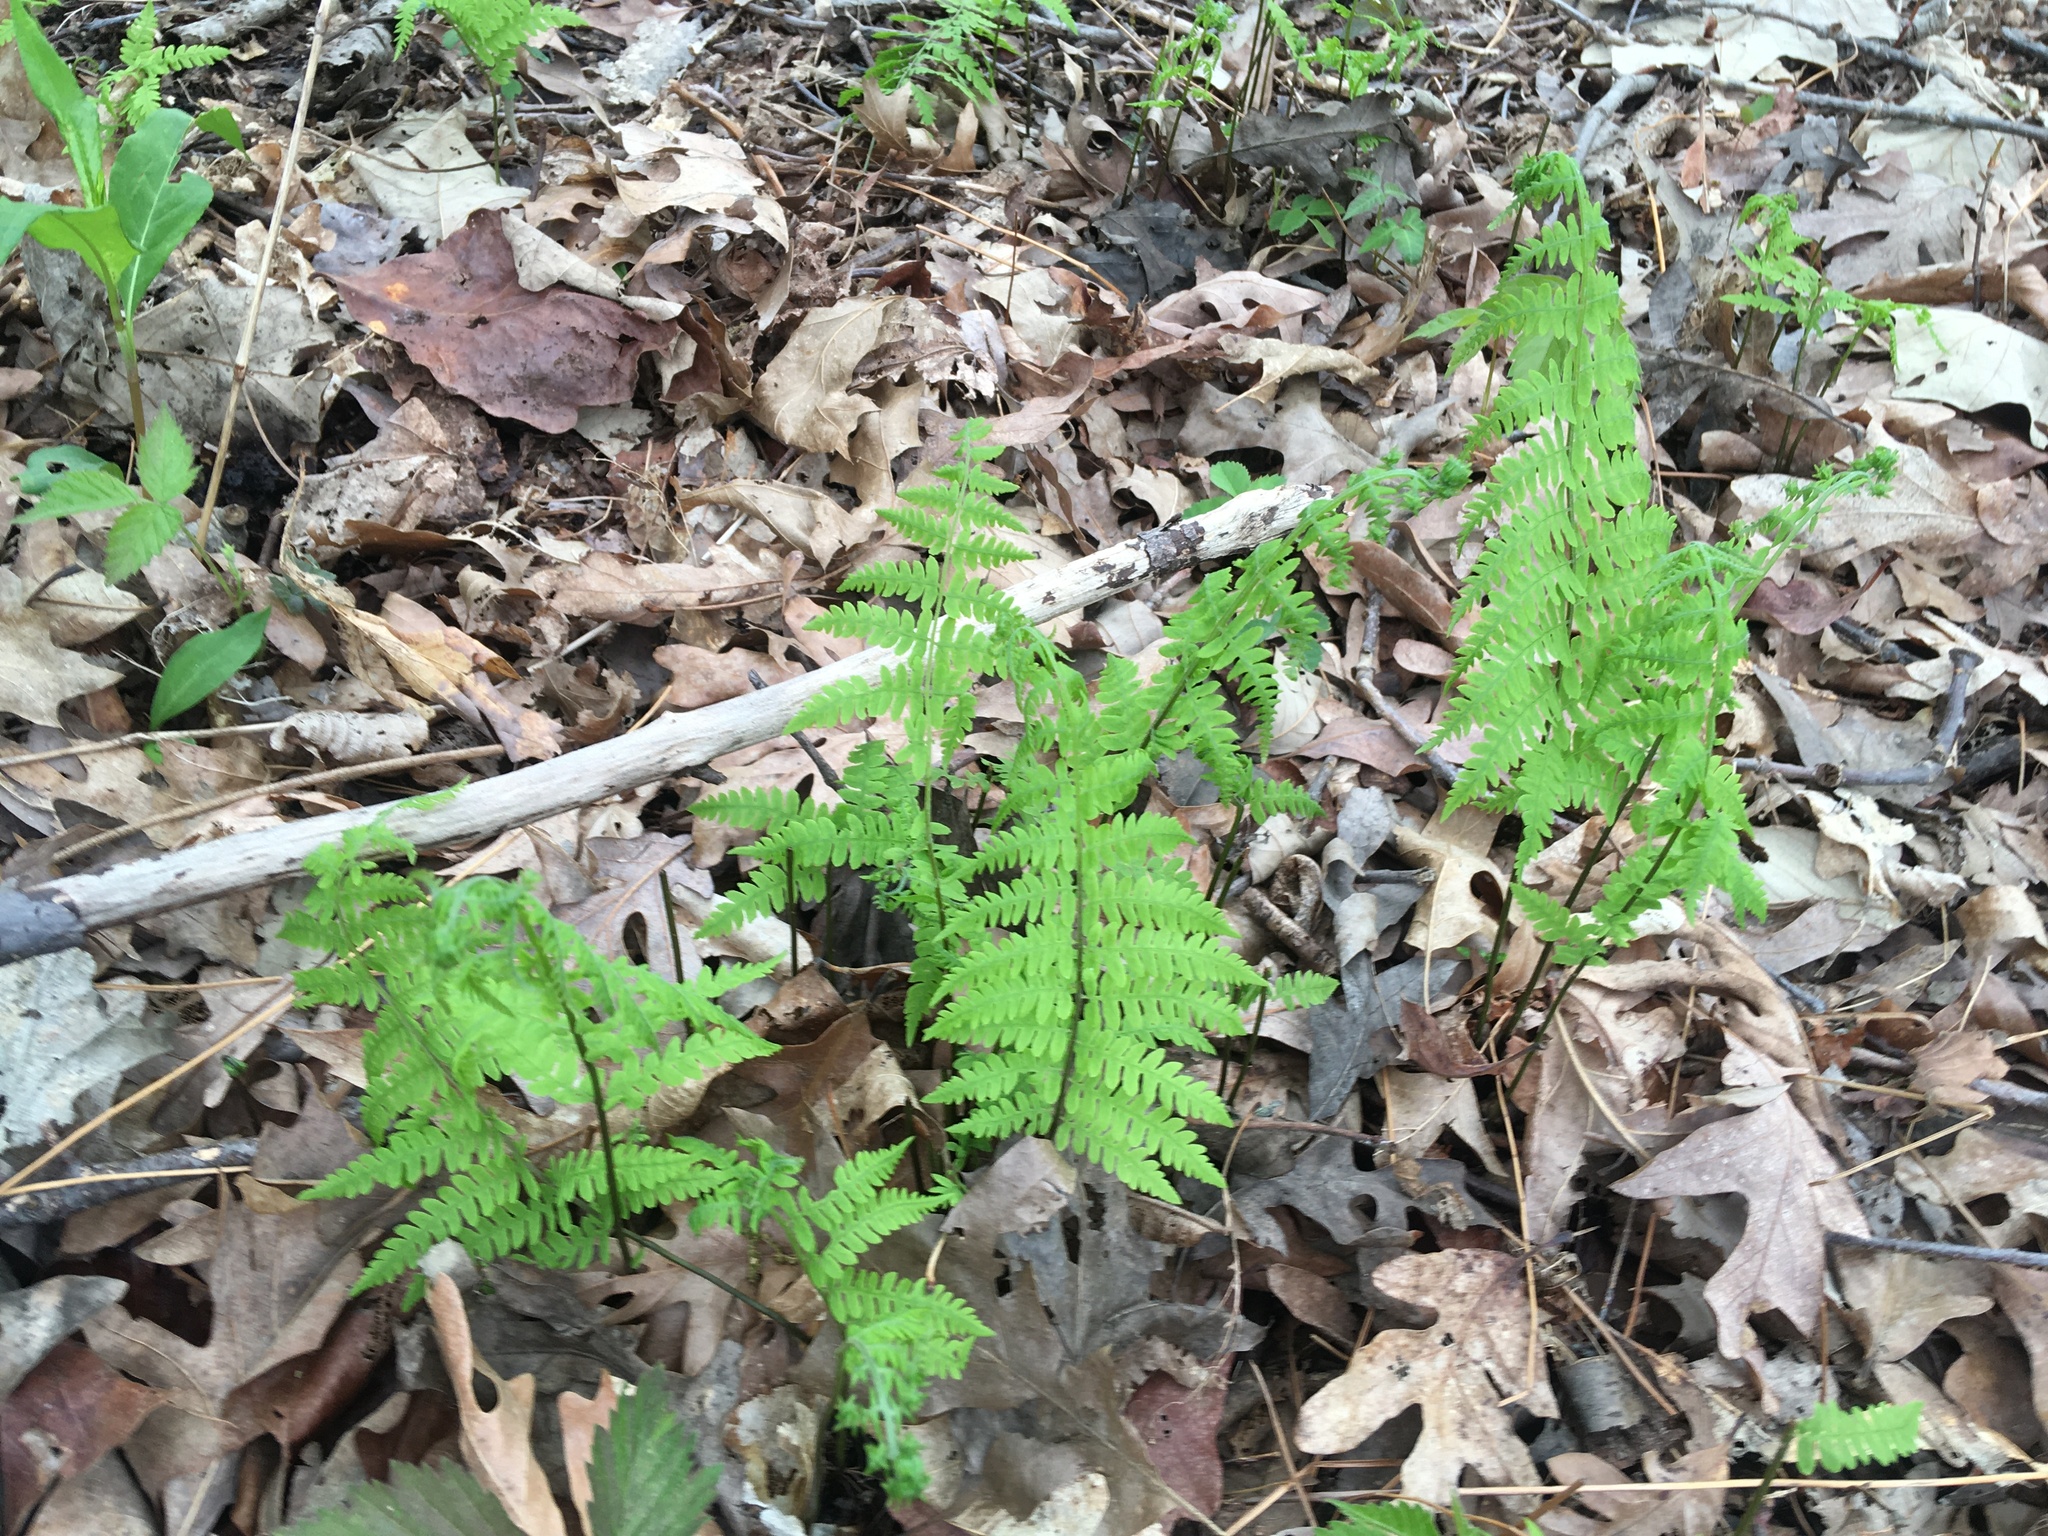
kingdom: Plantae
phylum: Tracheophyta
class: Polypodiopsida
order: Polypodiales
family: Thelypteridaceae
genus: Thelypteris
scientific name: Thelypteris palustris
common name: Marsh fern
